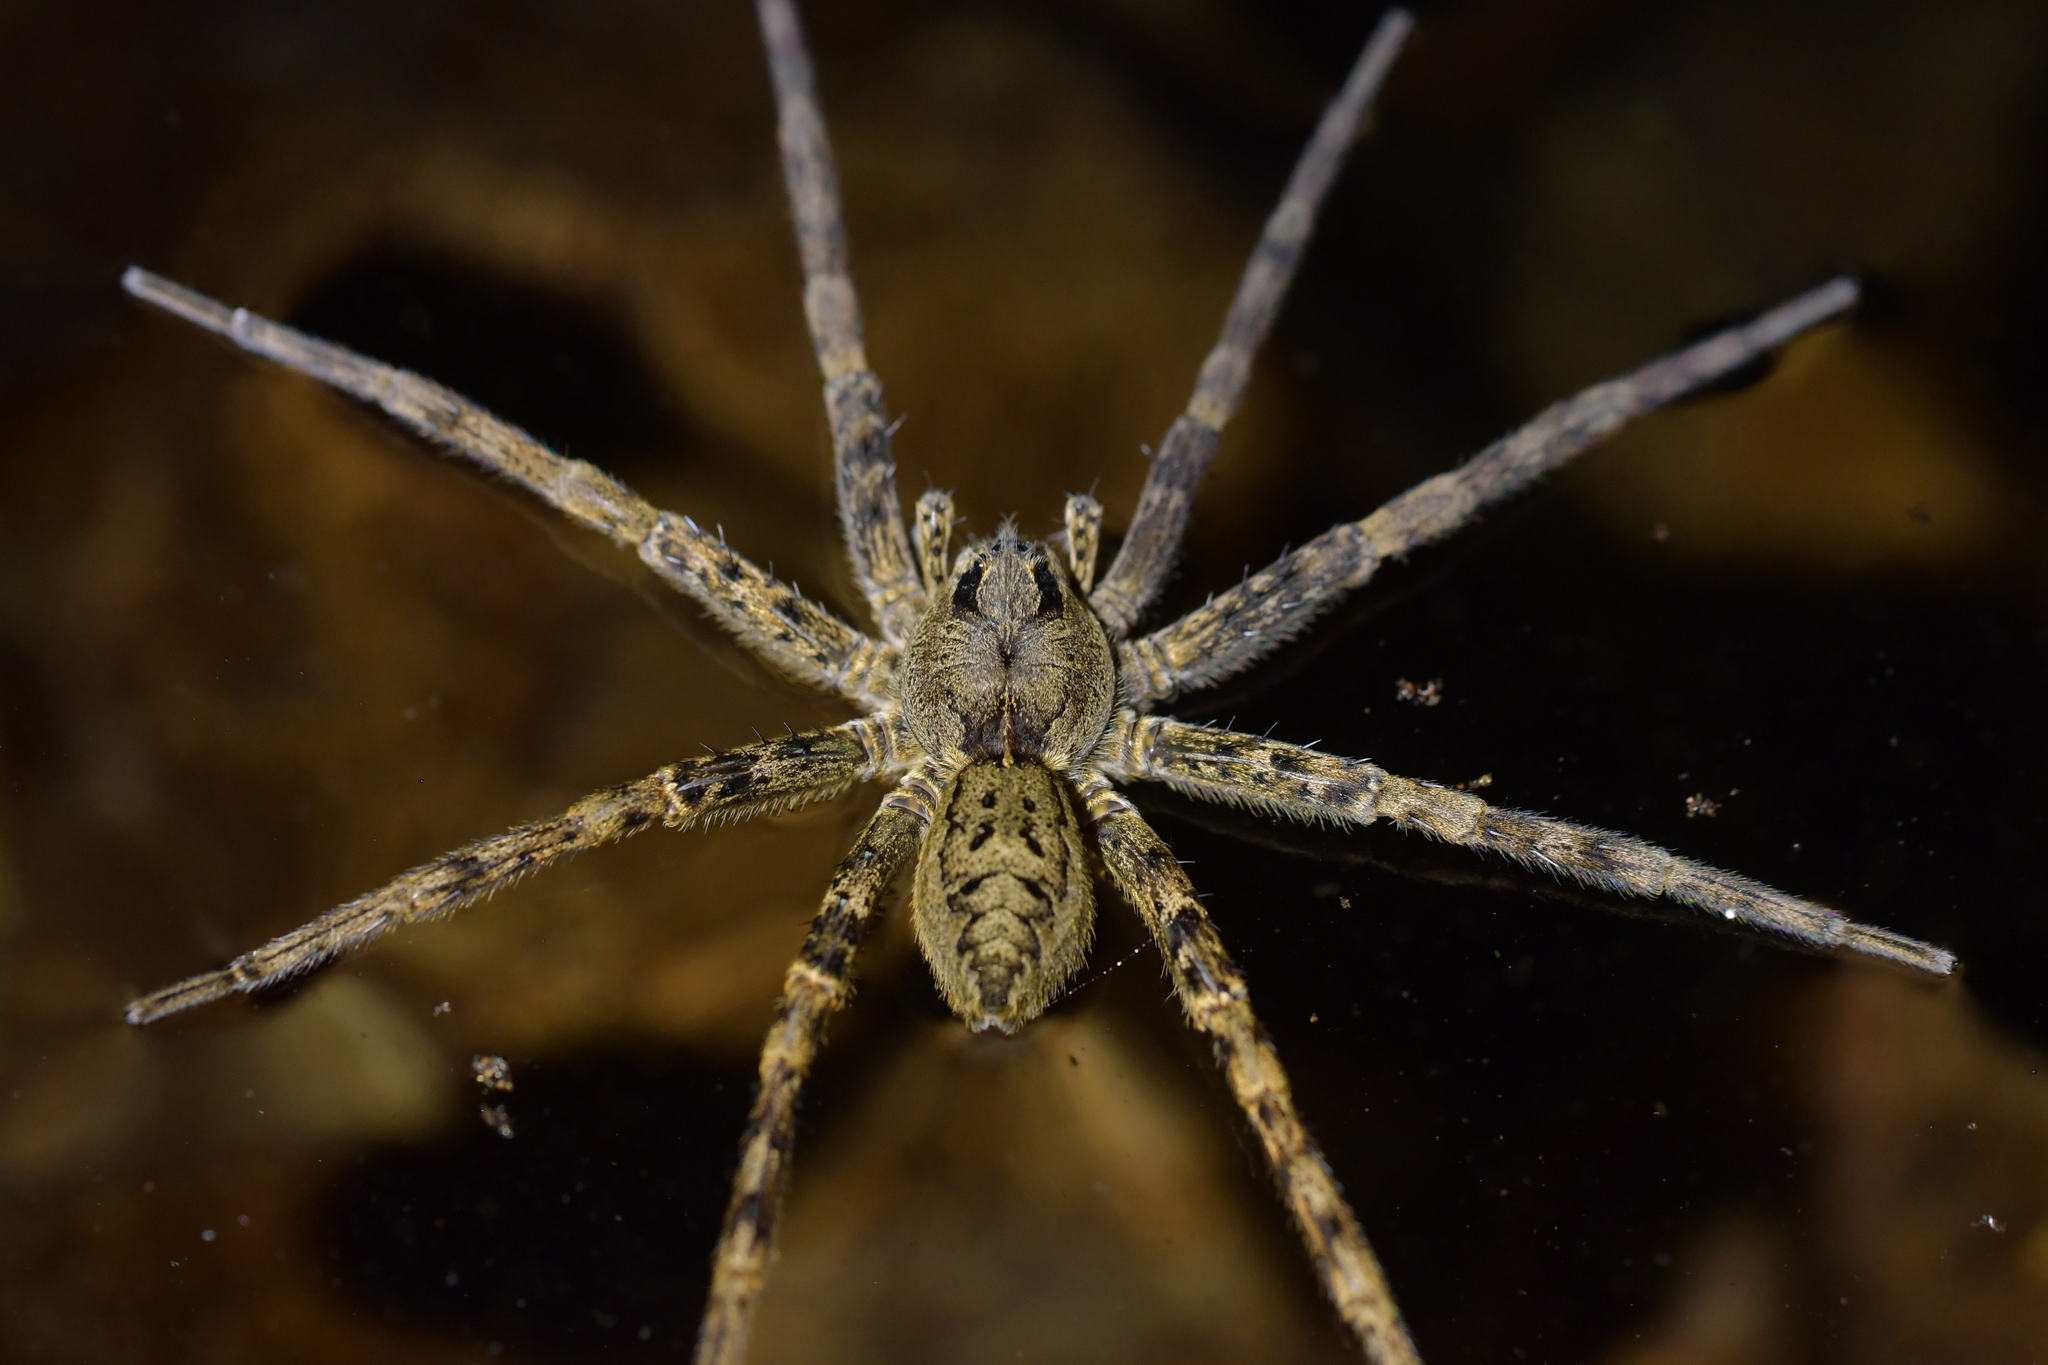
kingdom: Animalia
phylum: Arthropoda
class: Arachnida
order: Araneae
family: Pisauridae
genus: Dolomedes
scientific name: Dolomedes dondalei
